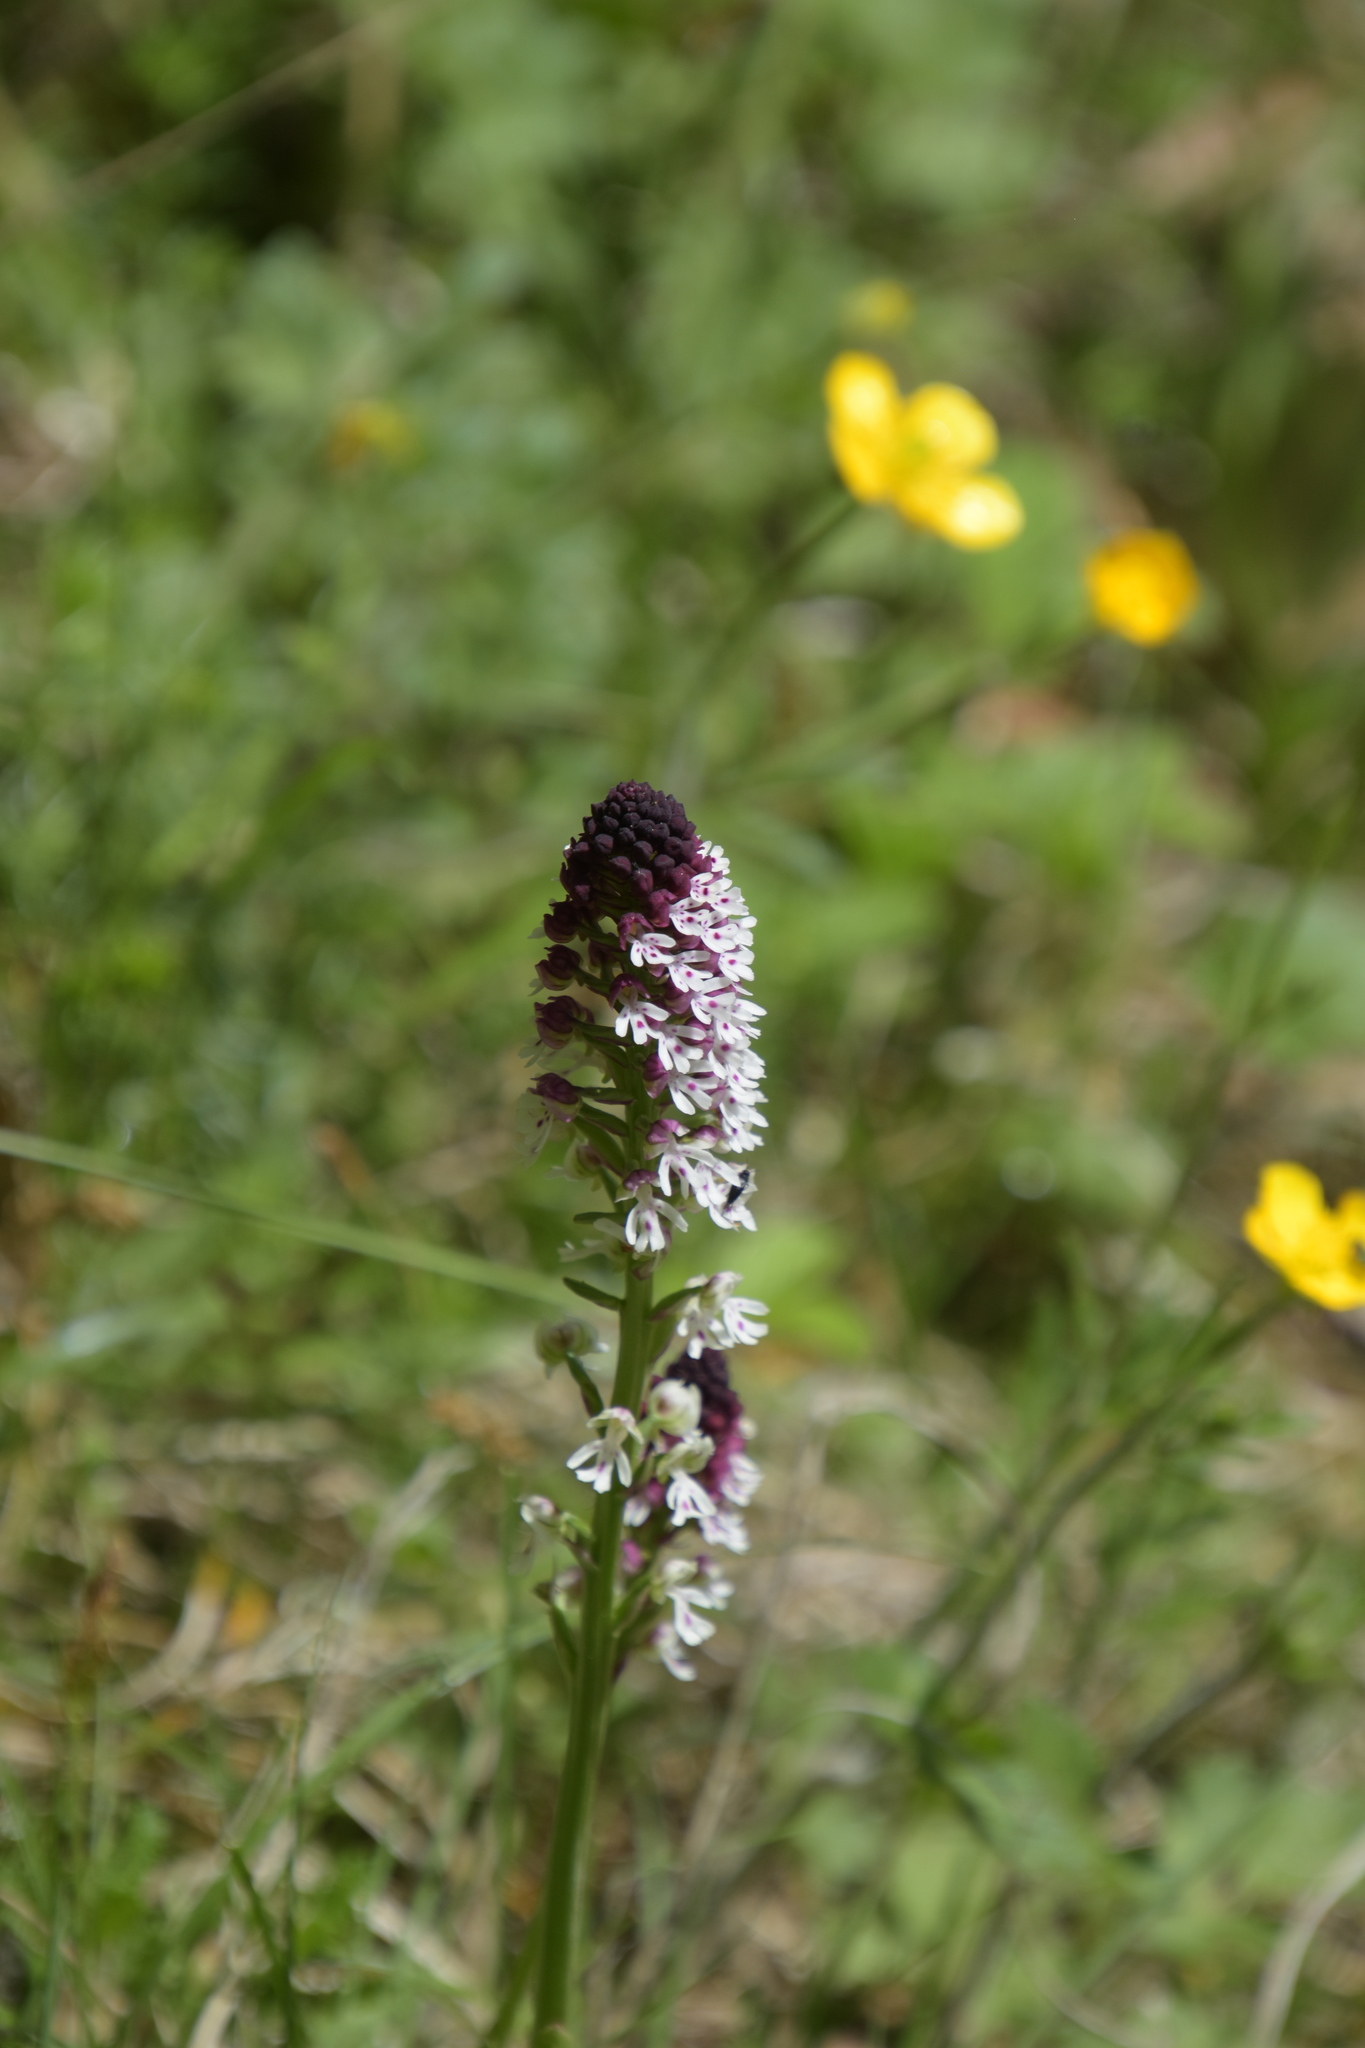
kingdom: Plantae
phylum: Tracheophyta
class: Liliopsida
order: Asparagales
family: Orchidaceae
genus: Neotinea
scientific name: Neotinea ustulata
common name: Burnt orchid
